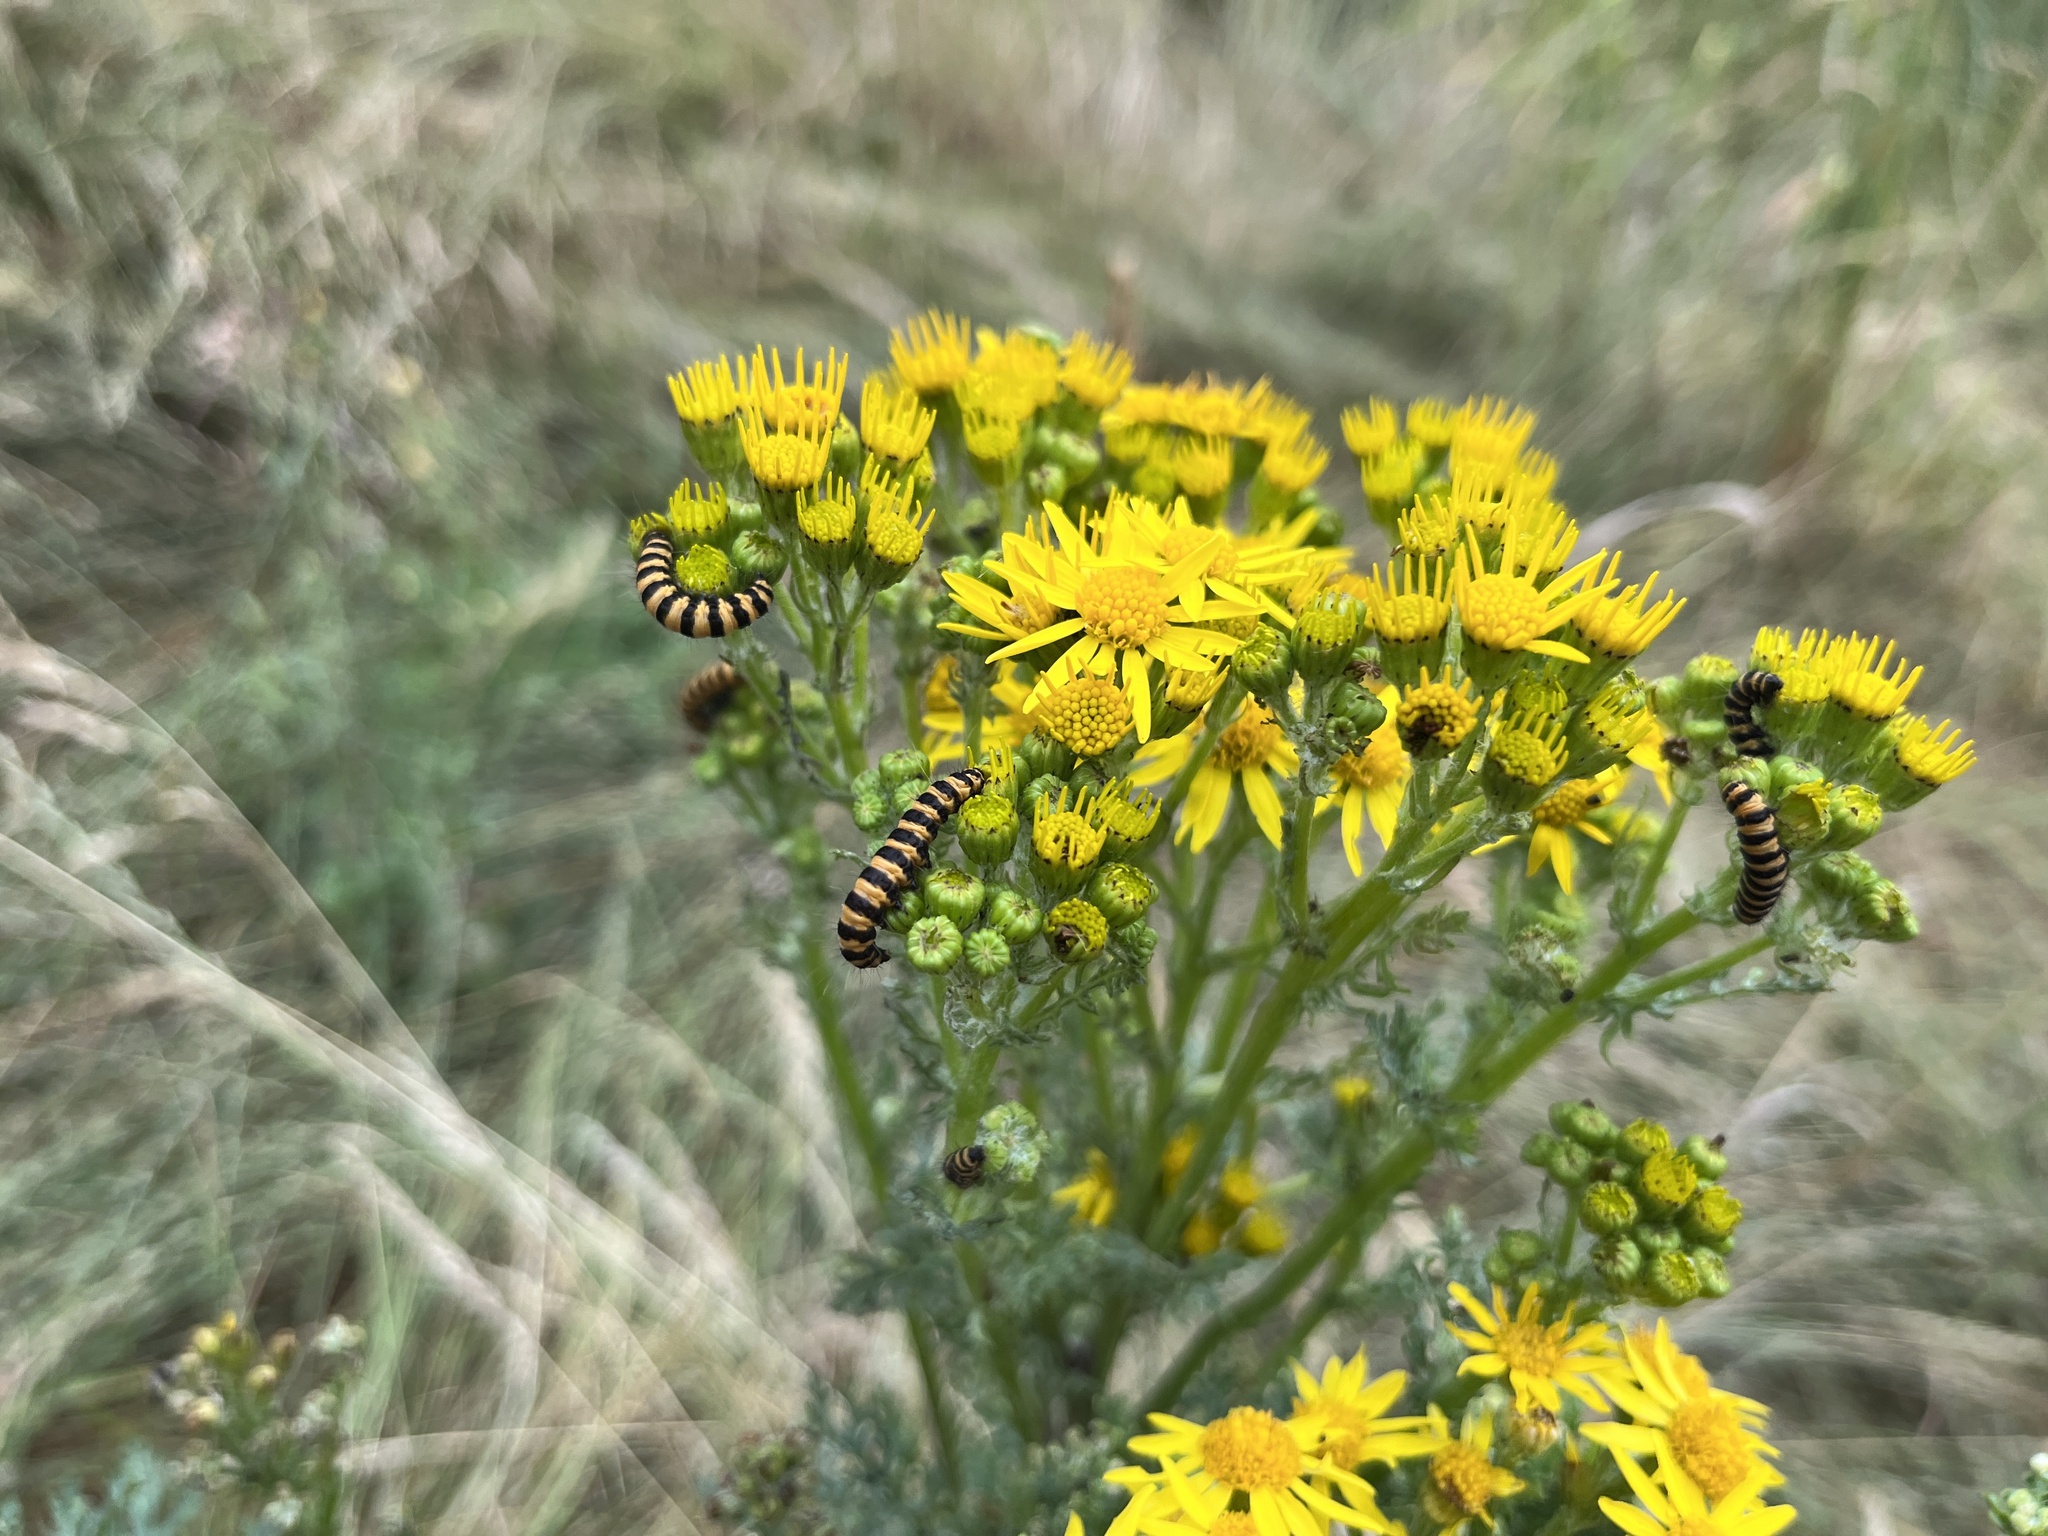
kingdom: Animalia
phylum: Arthropoda
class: Insecta
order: Lepidoptera
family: Erebidae
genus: Tyria
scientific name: Tyria jacobaeae
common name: Cinnabar
